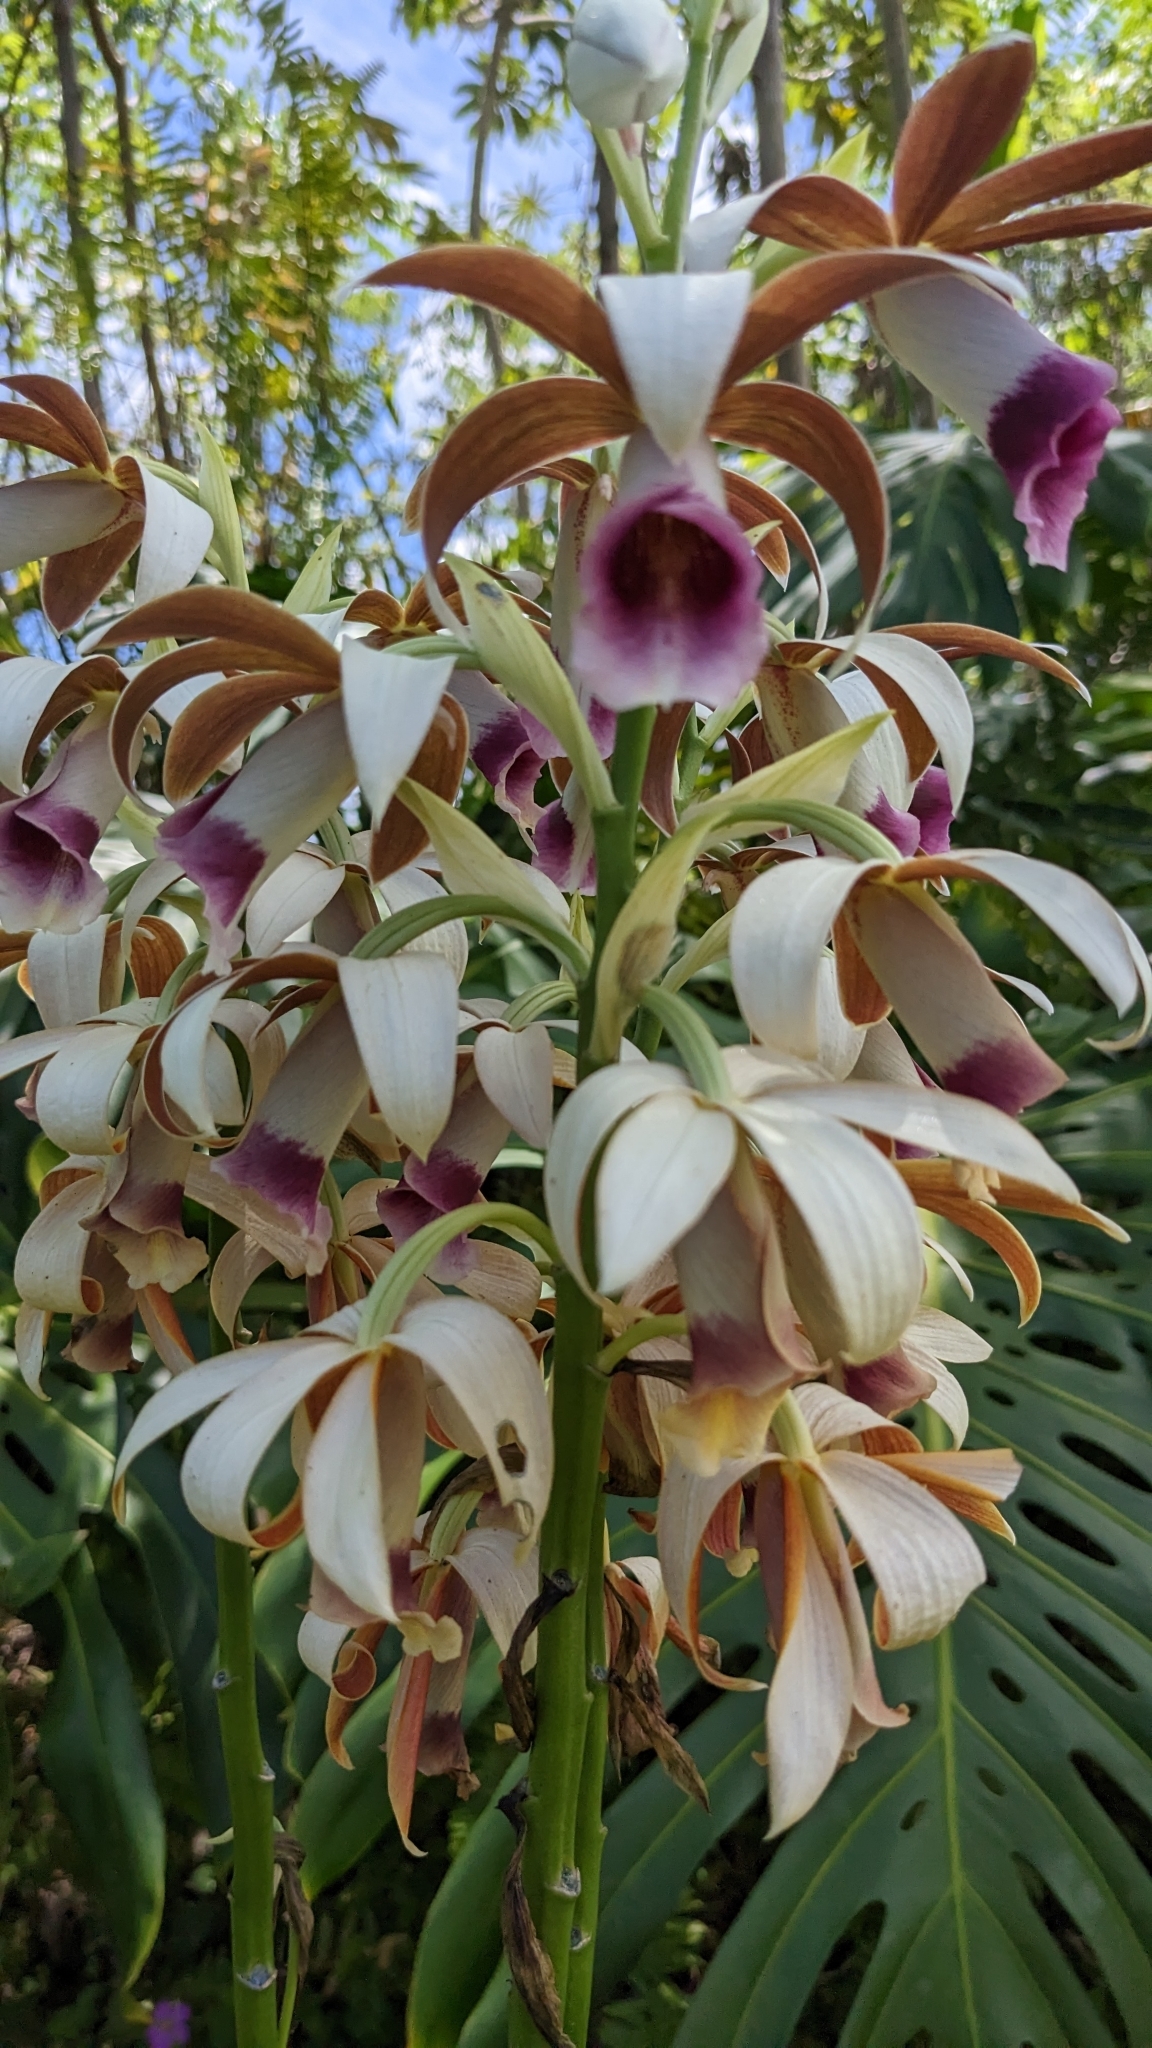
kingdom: Plantae
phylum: Tracheophyta
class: Liliopsida
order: Asparagales
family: Orchidaceae
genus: Calanthe
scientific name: Calanthe tankervilleae
